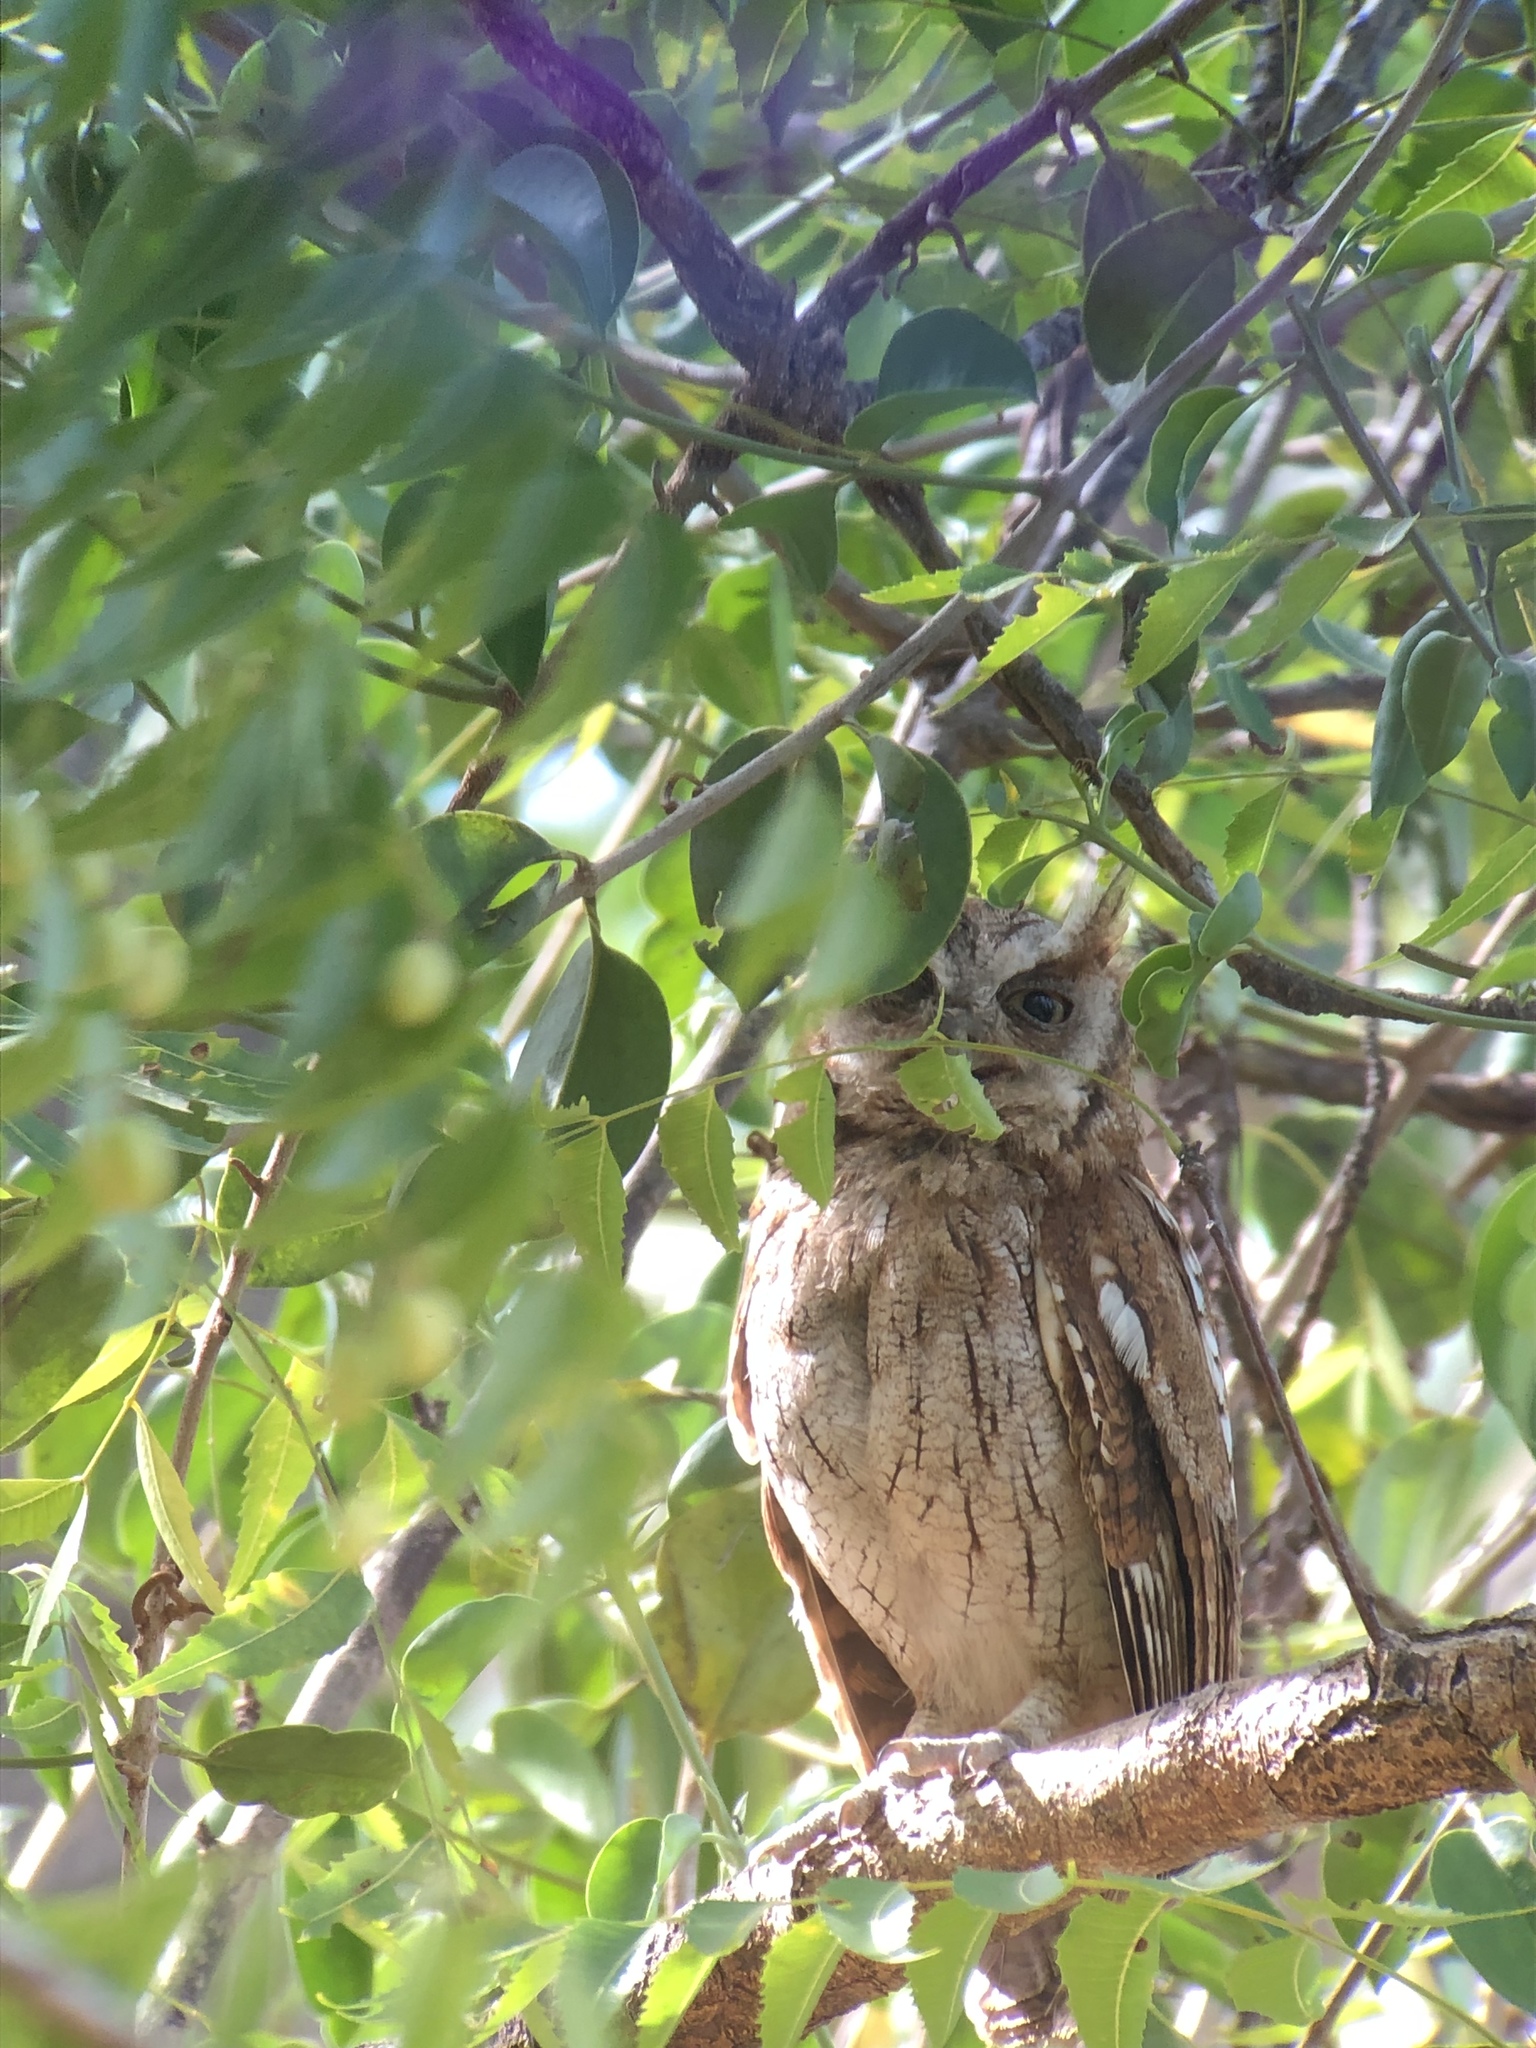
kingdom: Animalia
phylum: Chordata
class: Aves
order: Strigiformes
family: Strigidae
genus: Megascops
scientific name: Megascops choliba
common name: Tropical screech-owl
